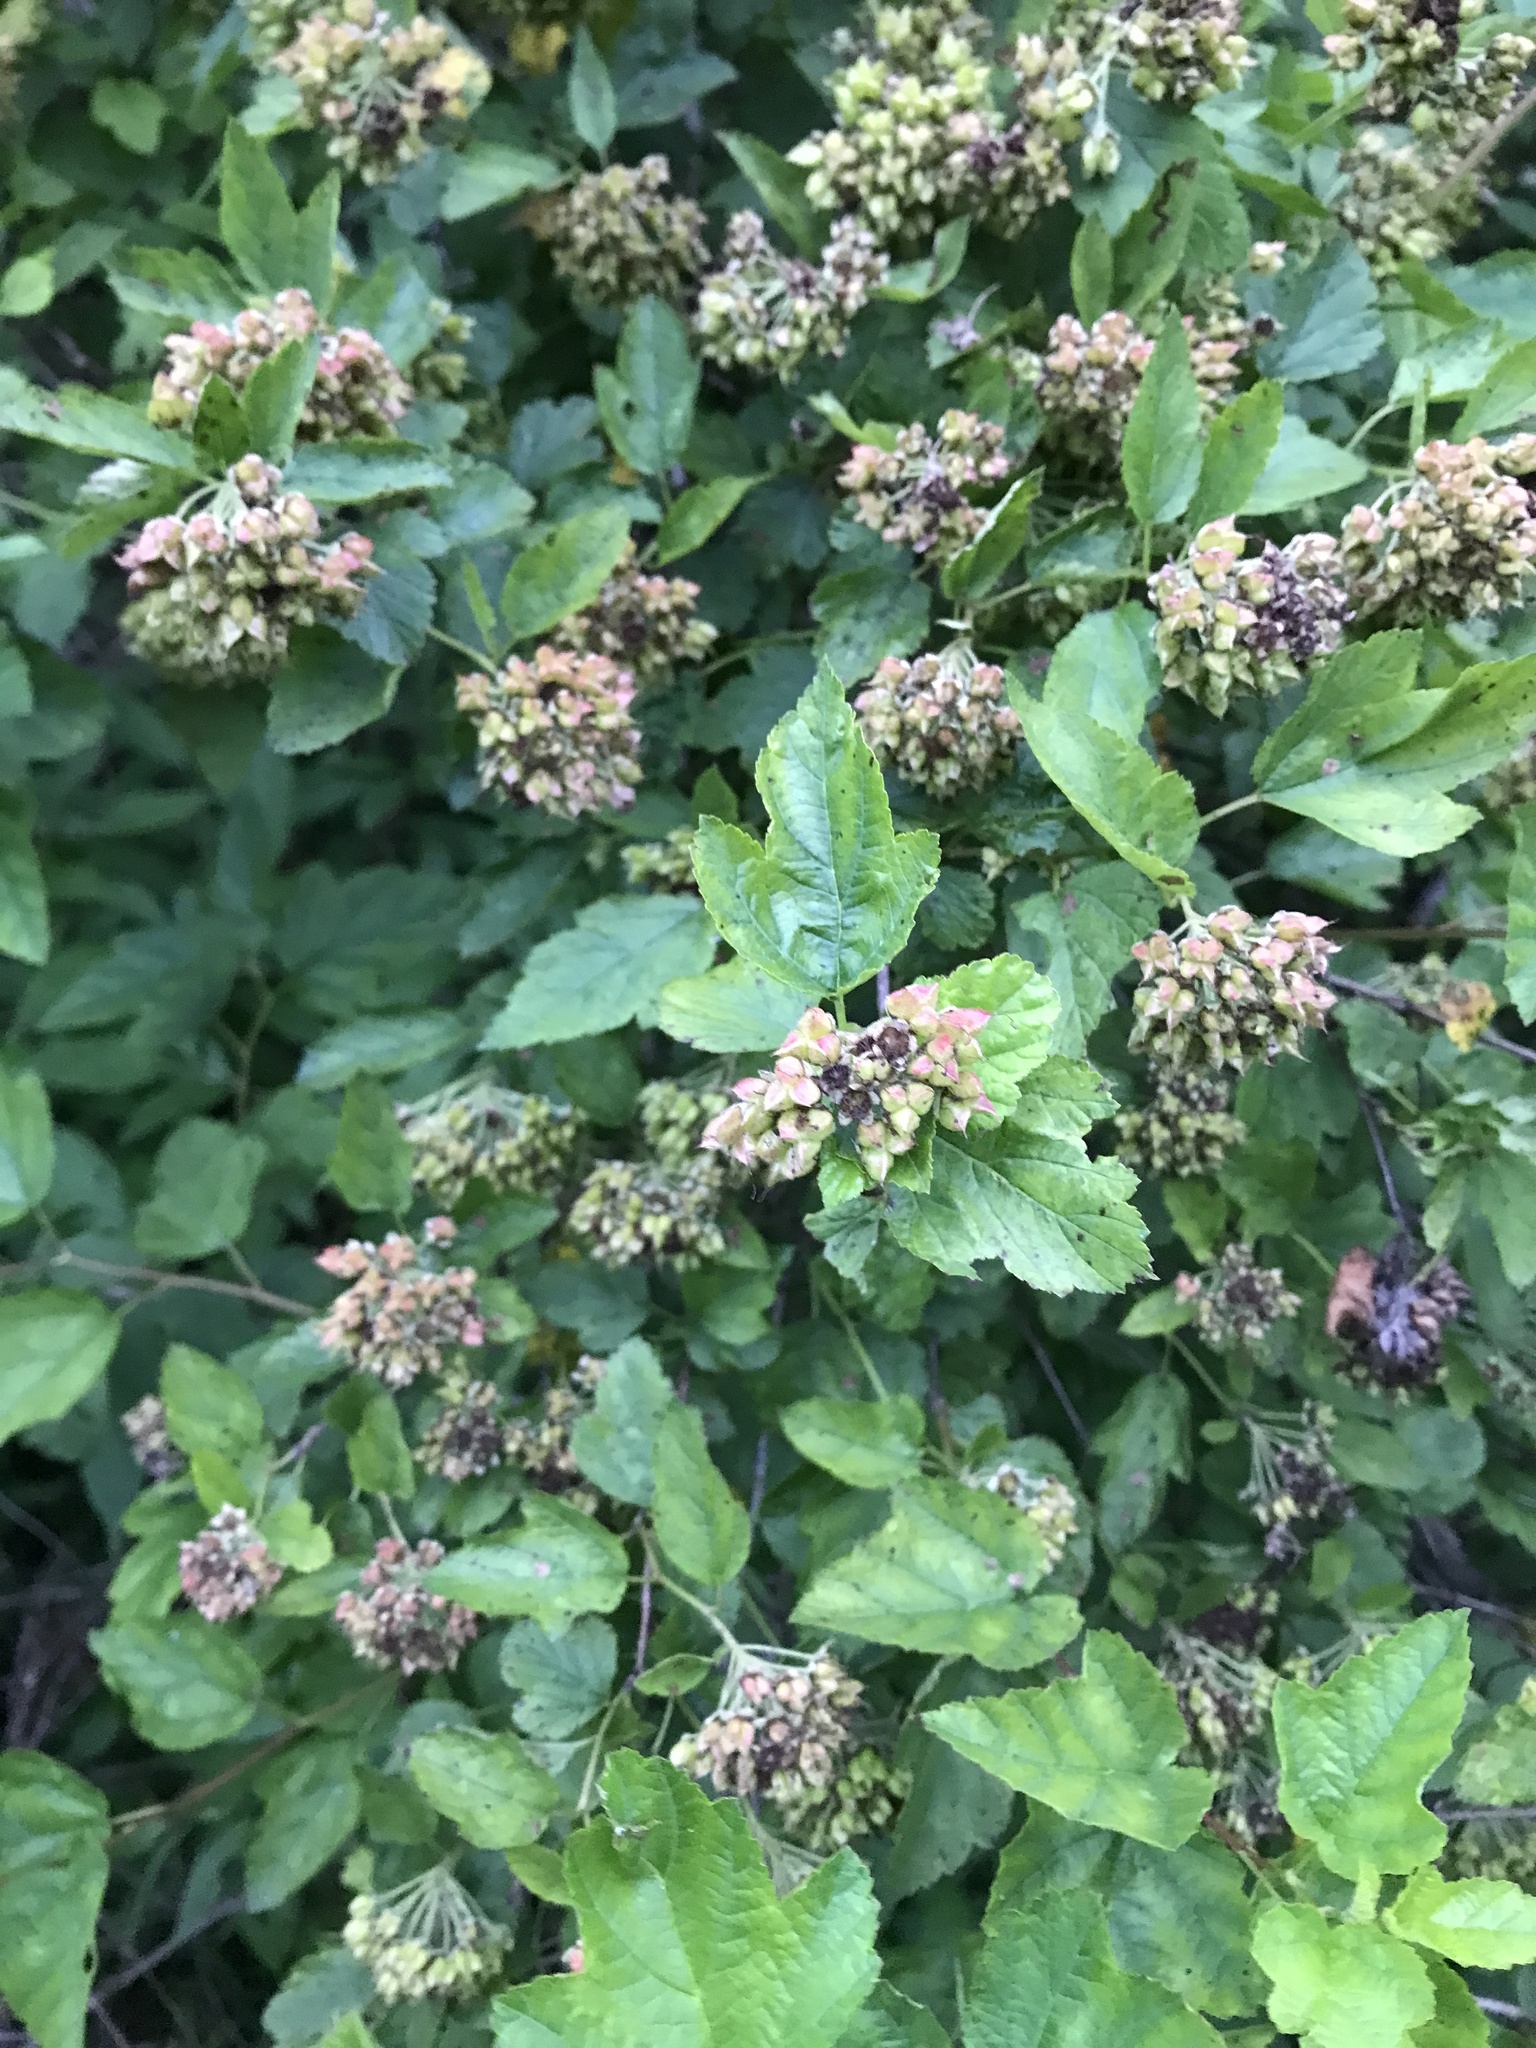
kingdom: Plantae
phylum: Tracheophyta
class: Magnoliopsida
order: Rosales
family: Rosaceae
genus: Physocarpus
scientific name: Physocarpus opulifolius
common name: Ninebark
